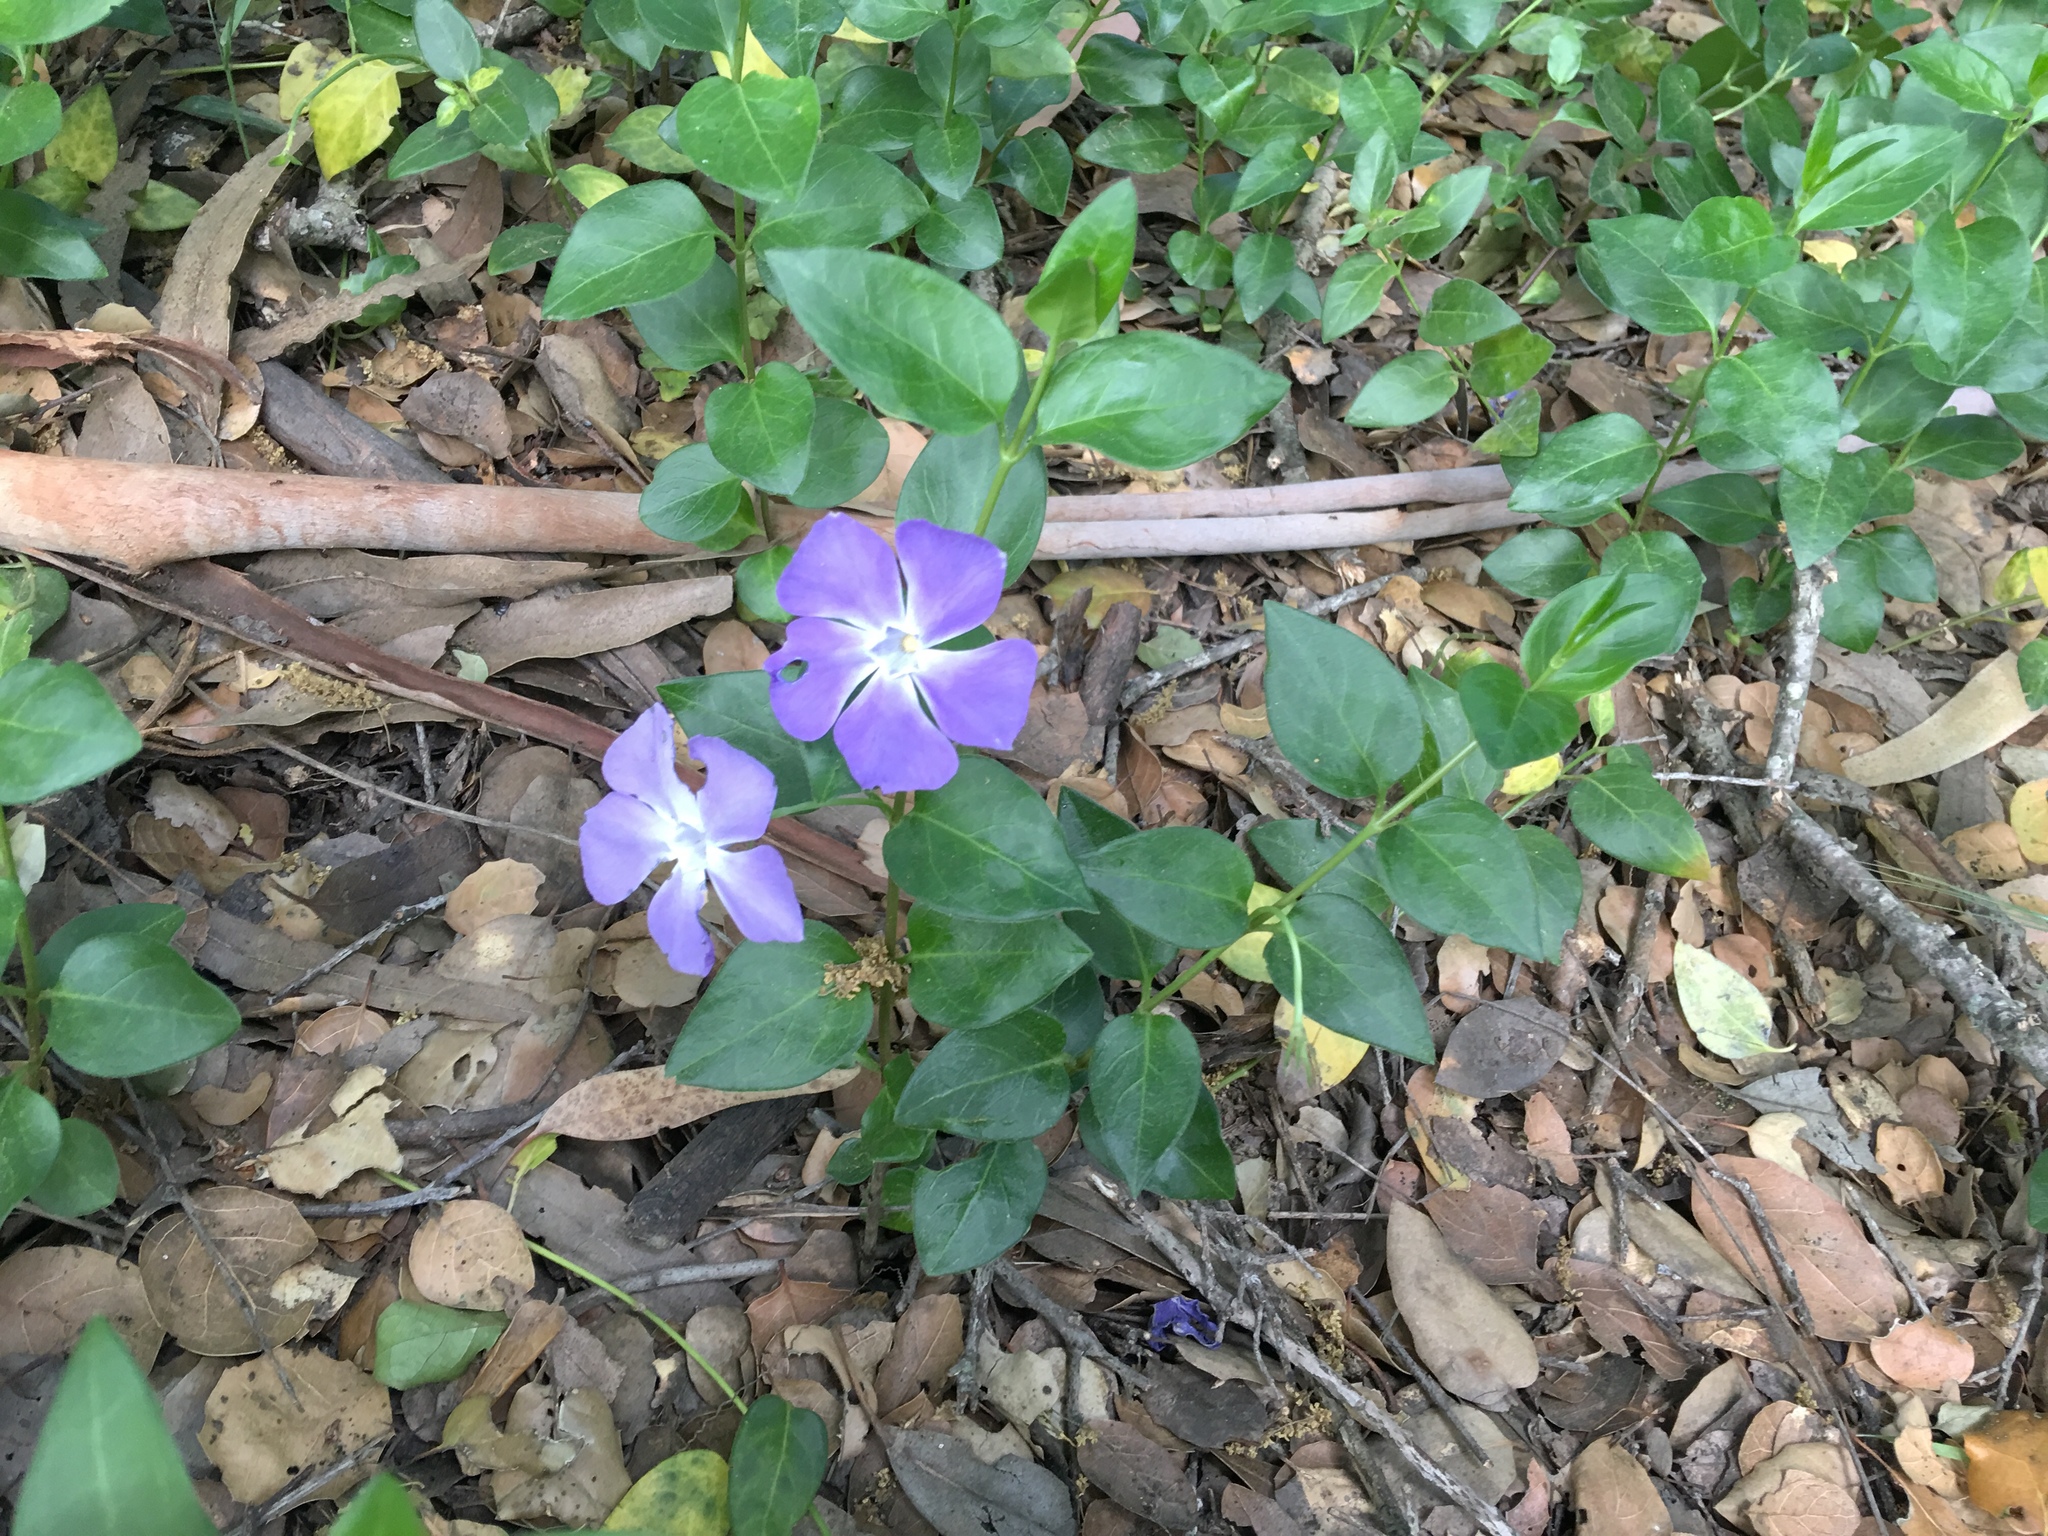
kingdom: Plantae
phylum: Tracheophyta
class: Magnoliopsida
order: Gentianales
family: Apocynaceae
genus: Vinca
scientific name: Vinca major
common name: Greater periwinkle
